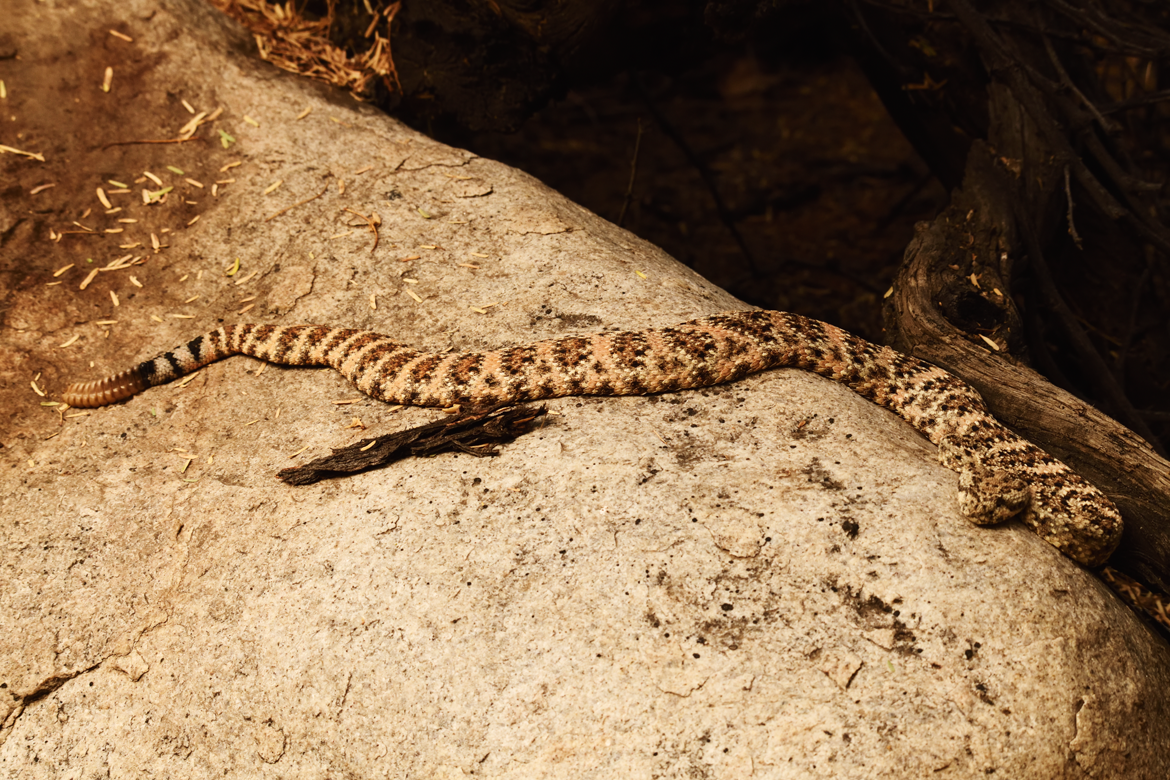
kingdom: Animalia
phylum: Chordata
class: Squamata
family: Viperidae
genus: Crotalus
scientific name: Crotalus pyrrhus
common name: Southwestern speckled rattlesnake
